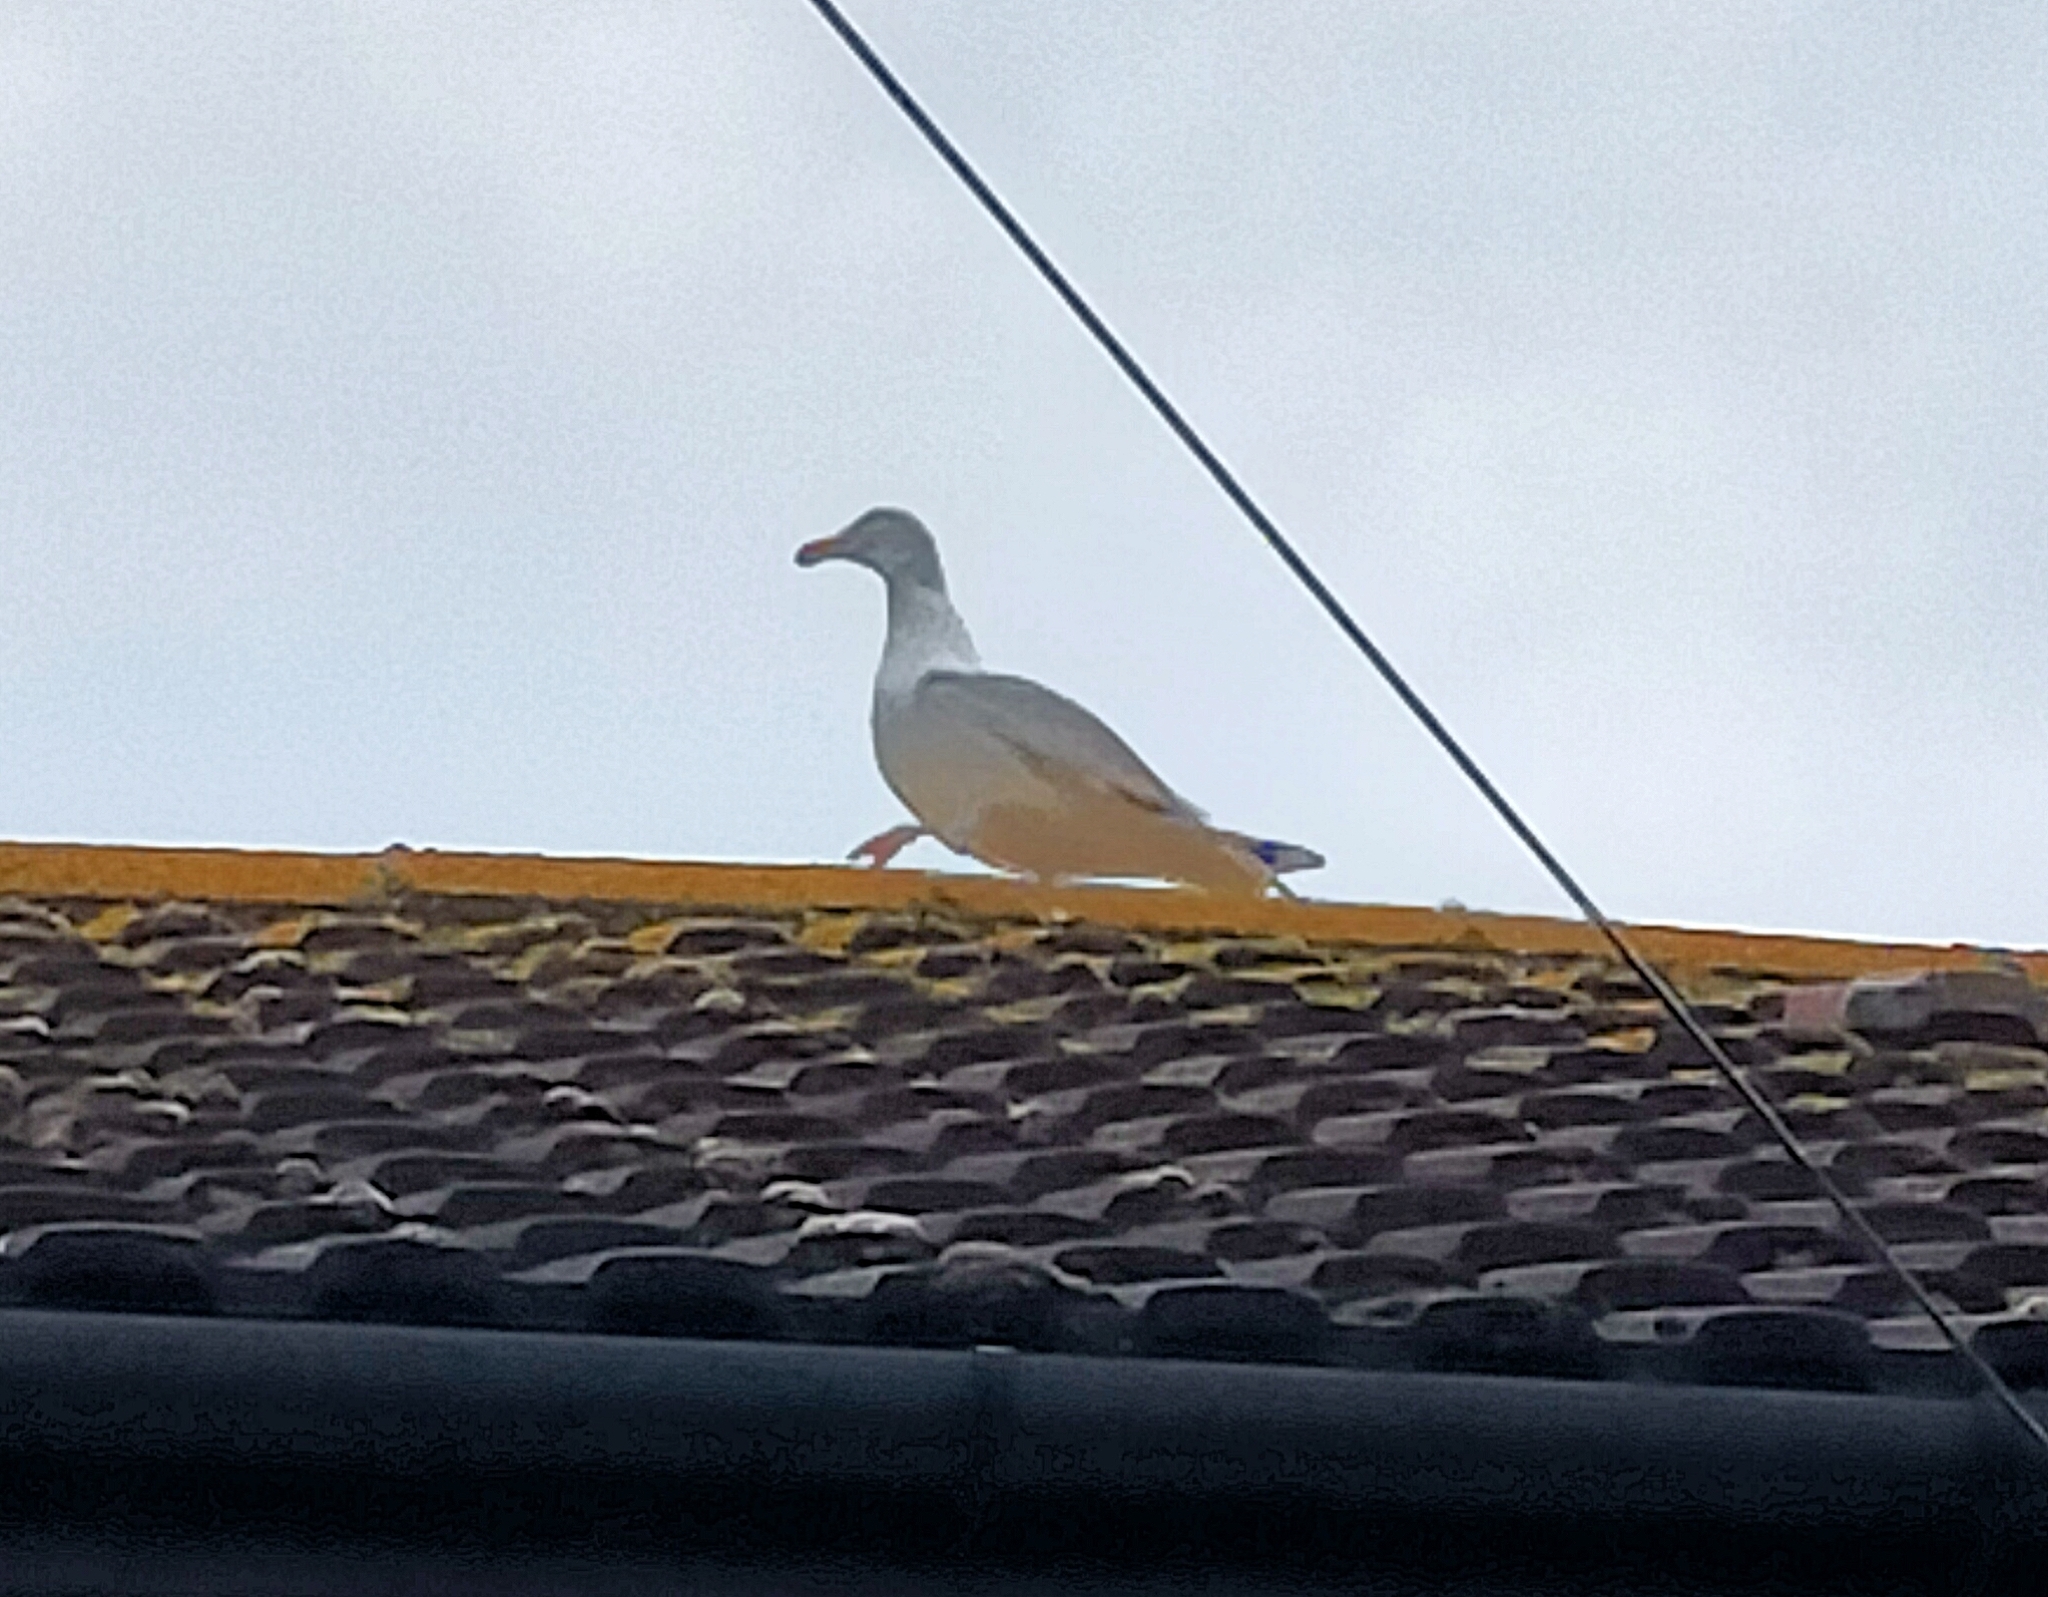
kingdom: Animalia
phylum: Chordata
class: Aves
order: Charadriiformes
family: Laridae
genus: Larus
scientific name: Larus argentatus
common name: Herring gull
